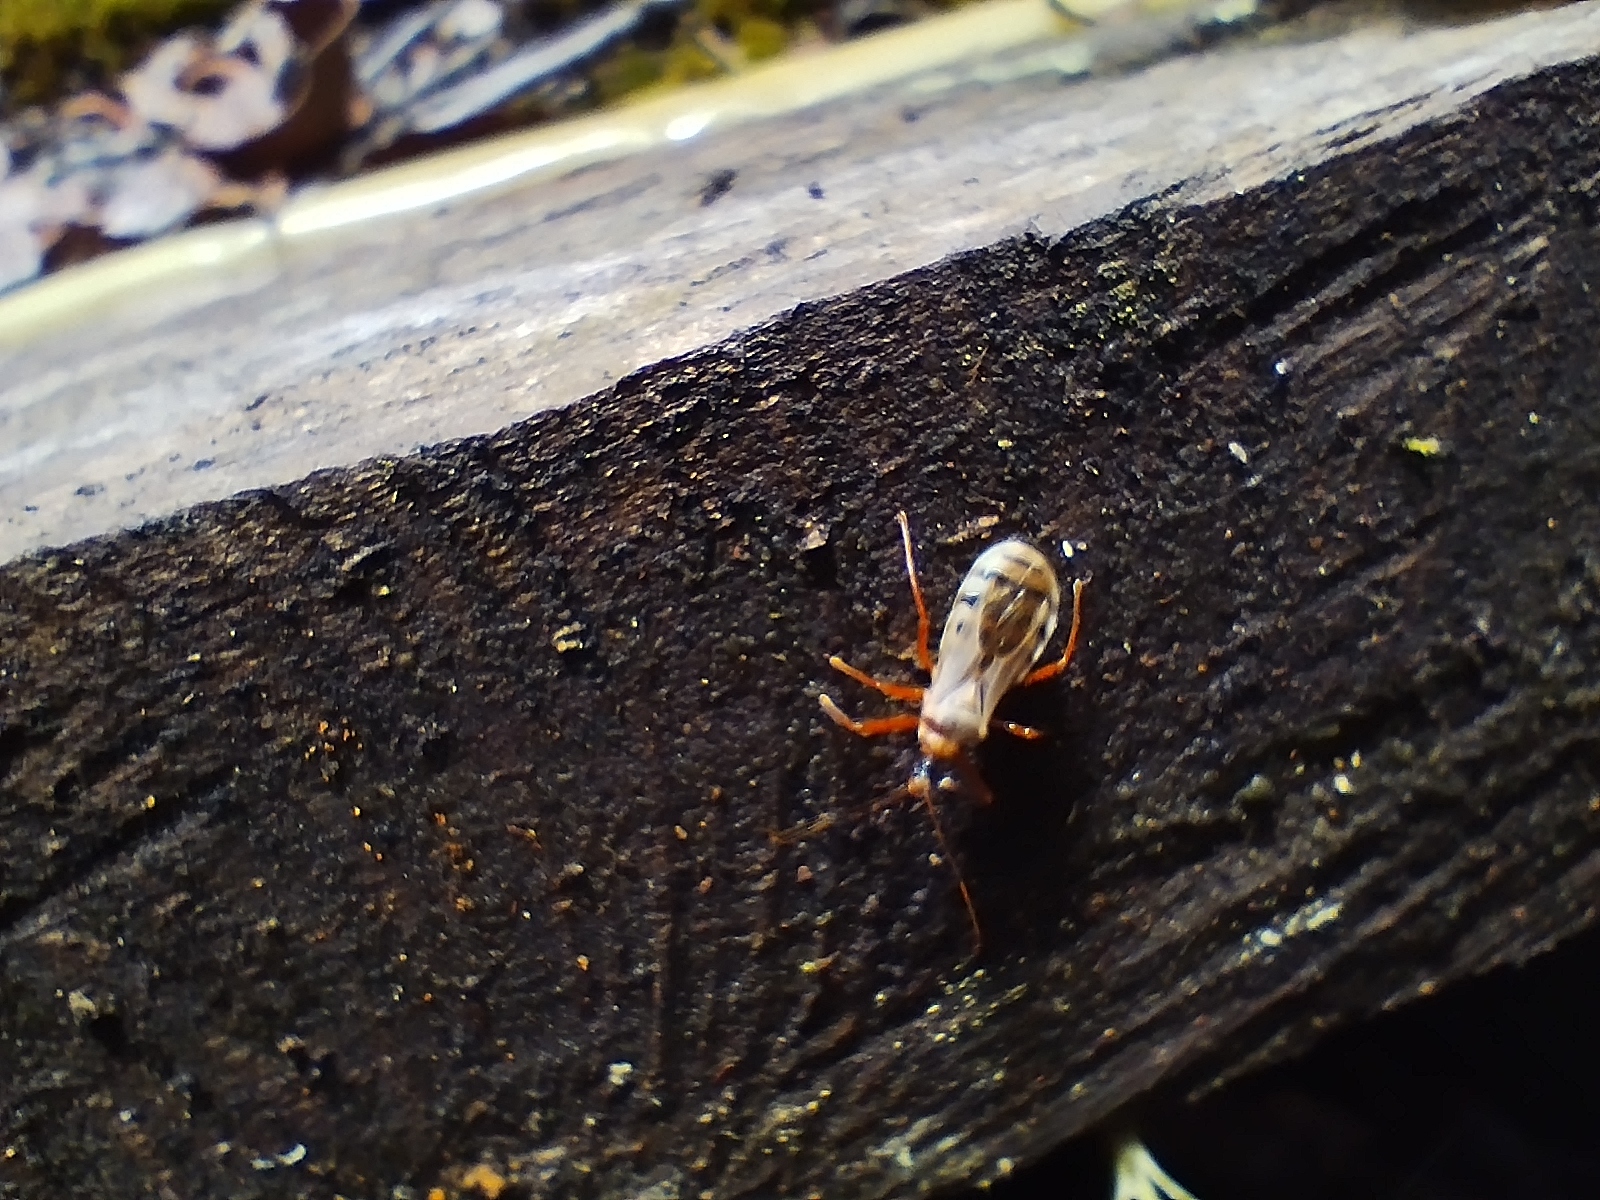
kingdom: Animalia
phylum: Arthropoda
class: Insecta
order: Hemiptera
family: Reduviidae
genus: Castolus
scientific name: Castolus trinotatus
